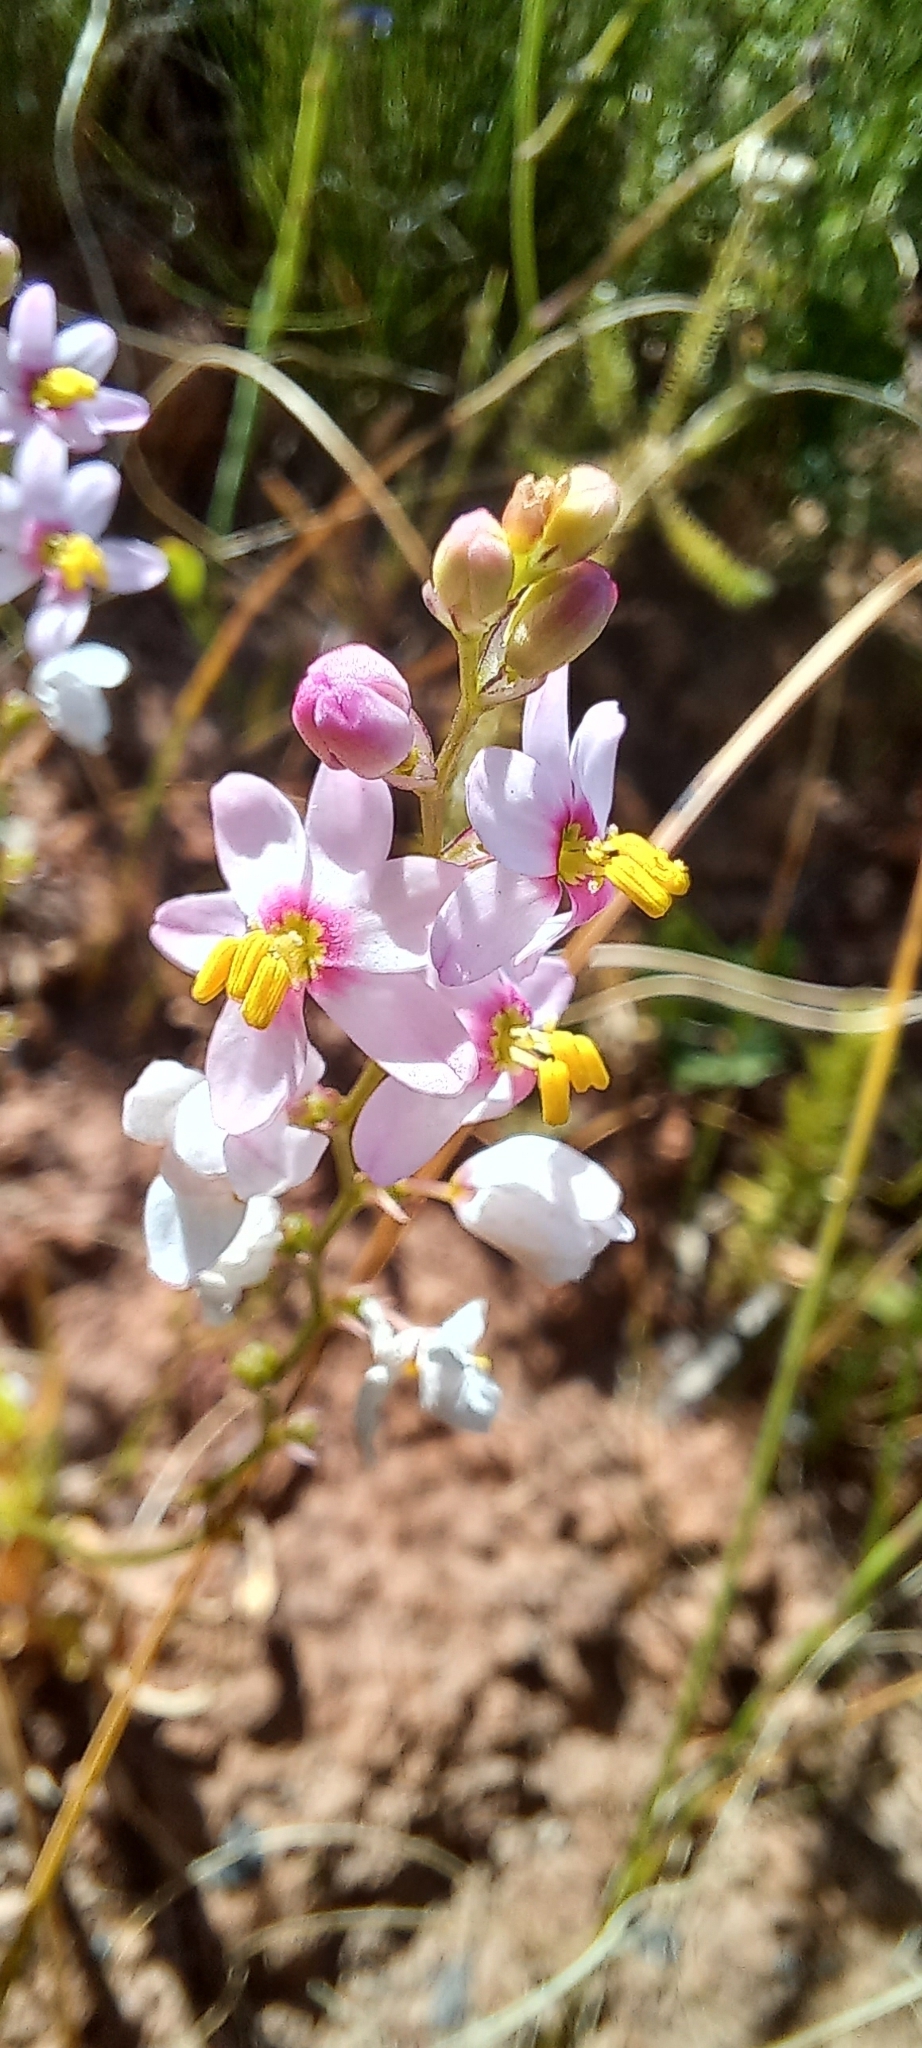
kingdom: Plantae
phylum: Tracheophyta
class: Liliopsida
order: Asparagales
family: Iridaceae
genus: Ixia
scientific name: Ixia scillaris
